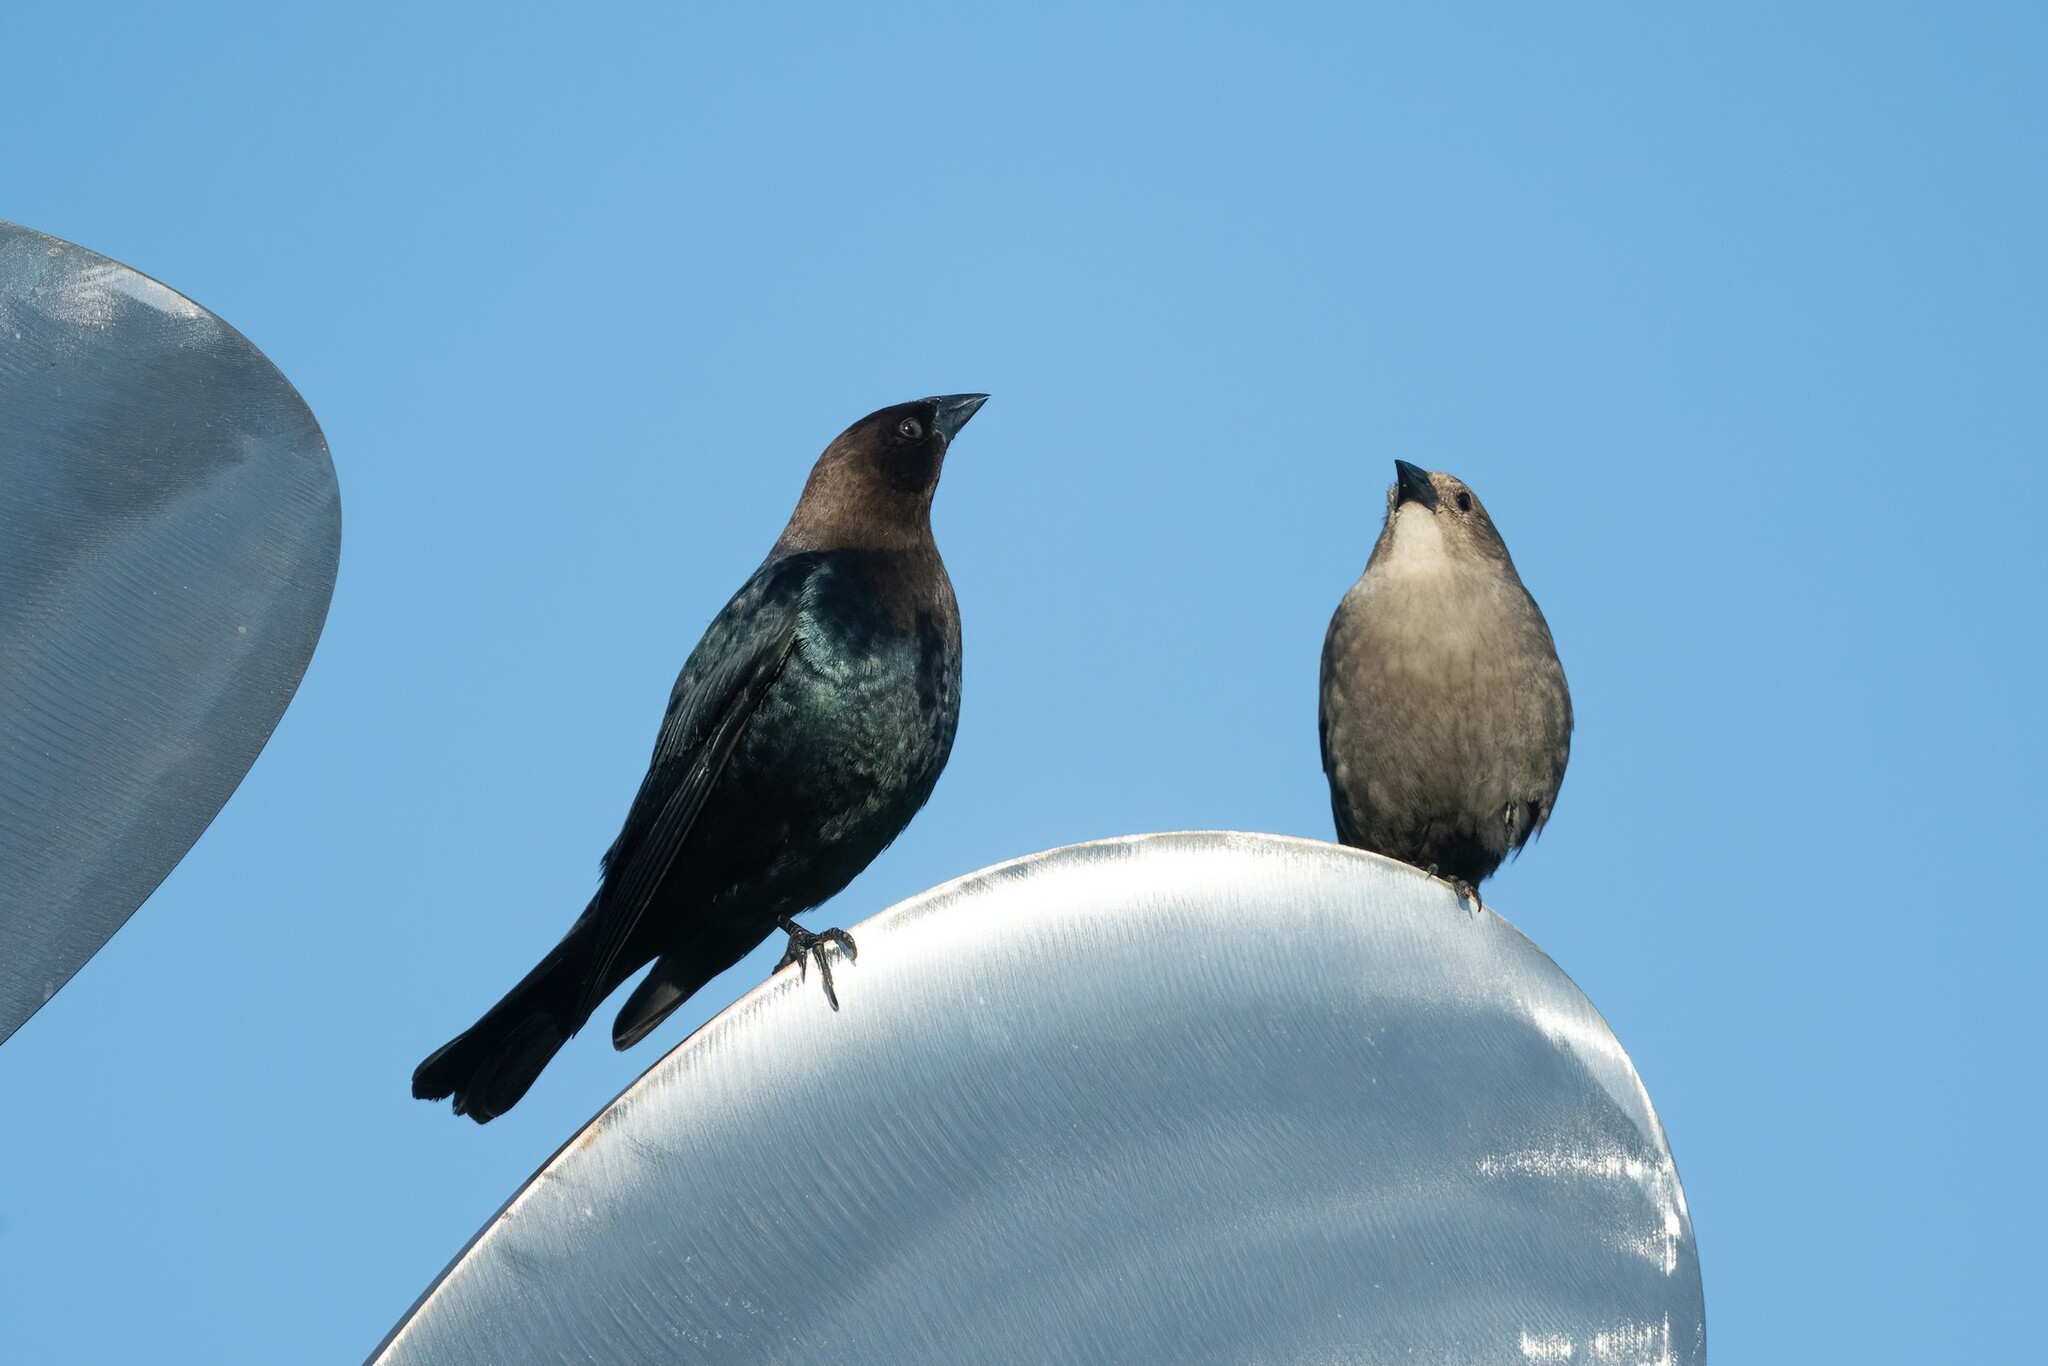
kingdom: Animalia
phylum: Chordata
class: Aves
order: Passeriformes
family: Icteridae
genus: Molothrus
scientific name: Molothrus ater
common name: Brown-headed cowbird
